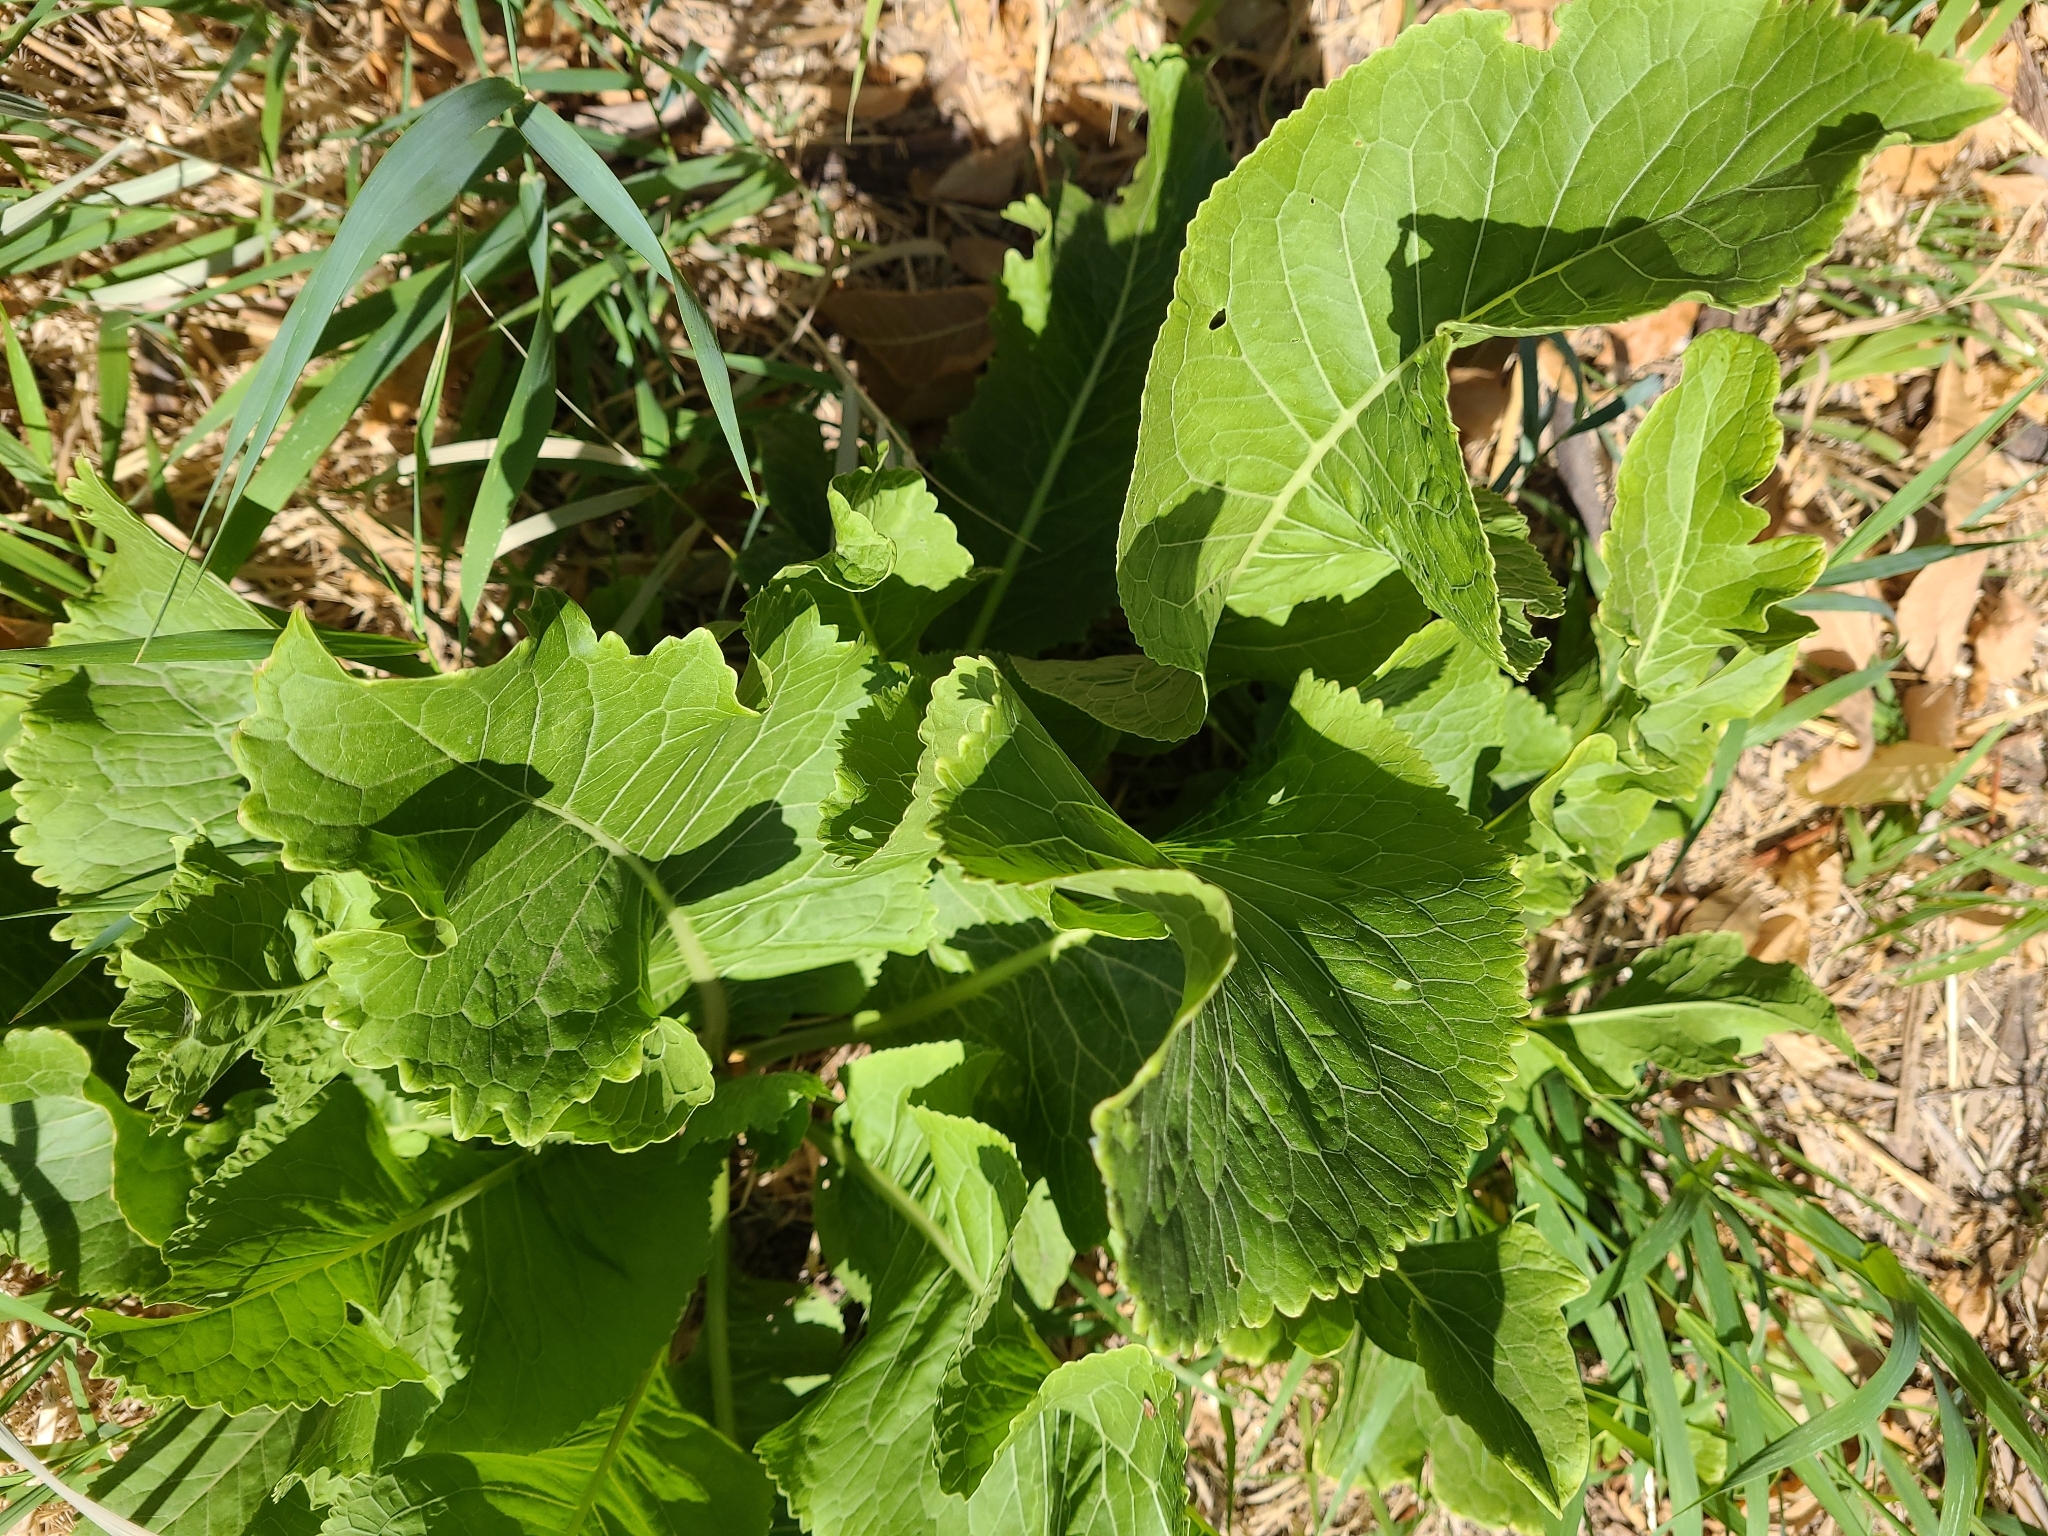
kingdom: Plantae
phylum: Tracheophyta
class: Magnoliopsida
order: Brassicales
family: Brassicaceae
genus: Armoracia
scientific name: Armoracia rusticana
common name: Horseradish
